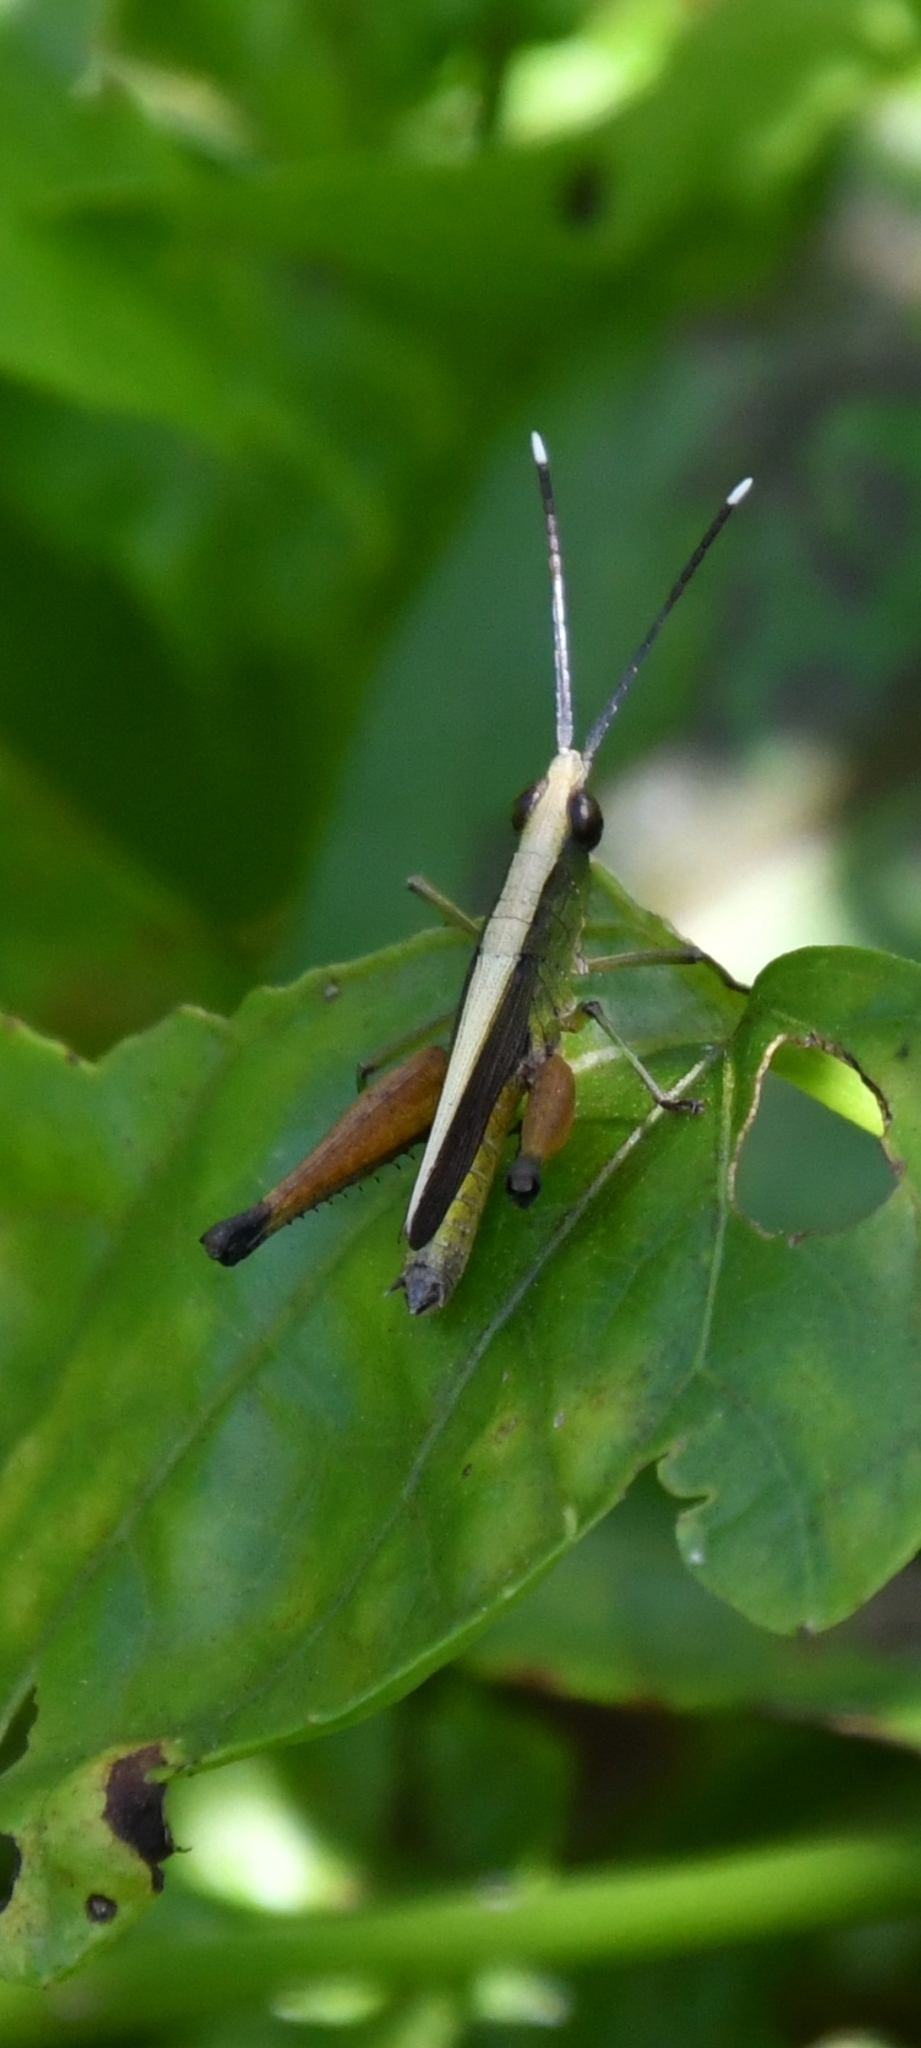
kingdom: Animalia
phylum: Arthropoda
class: Insecta
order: Orthoptera
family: Acrididae
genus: Phlaeoba
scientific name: Phlaeoba antennata
